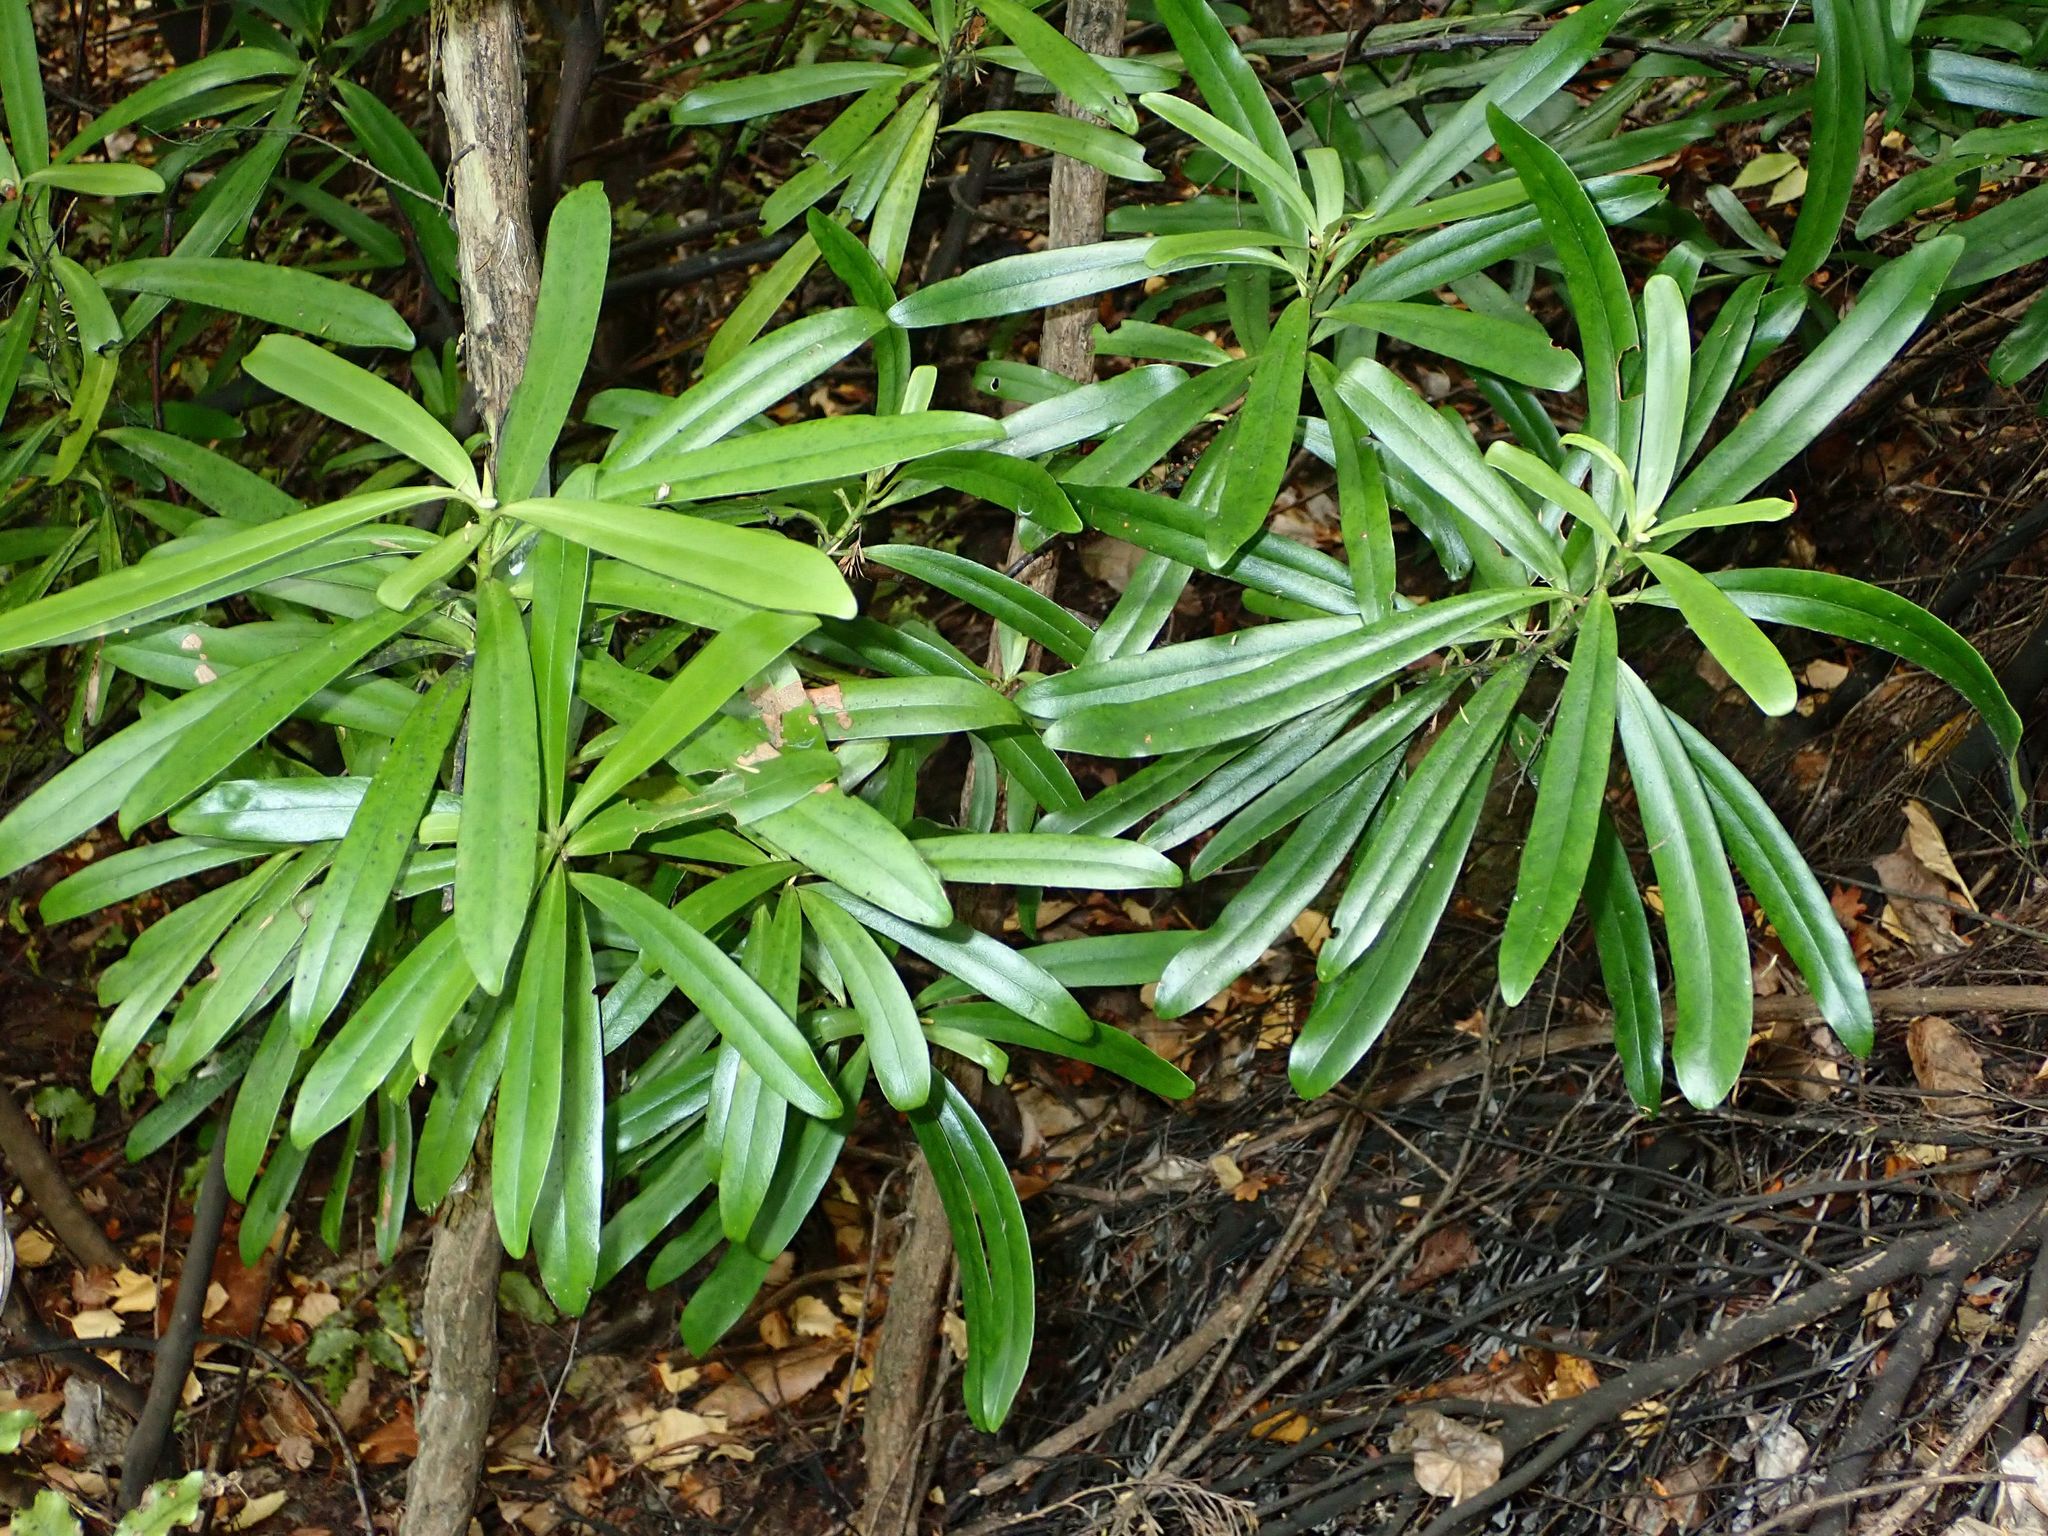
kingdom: Plantae
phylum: Tracheophyta
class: Magnoliopsida
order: Ericales
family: Primulaceae
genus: Myrsine
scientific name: Myrsine salicina
